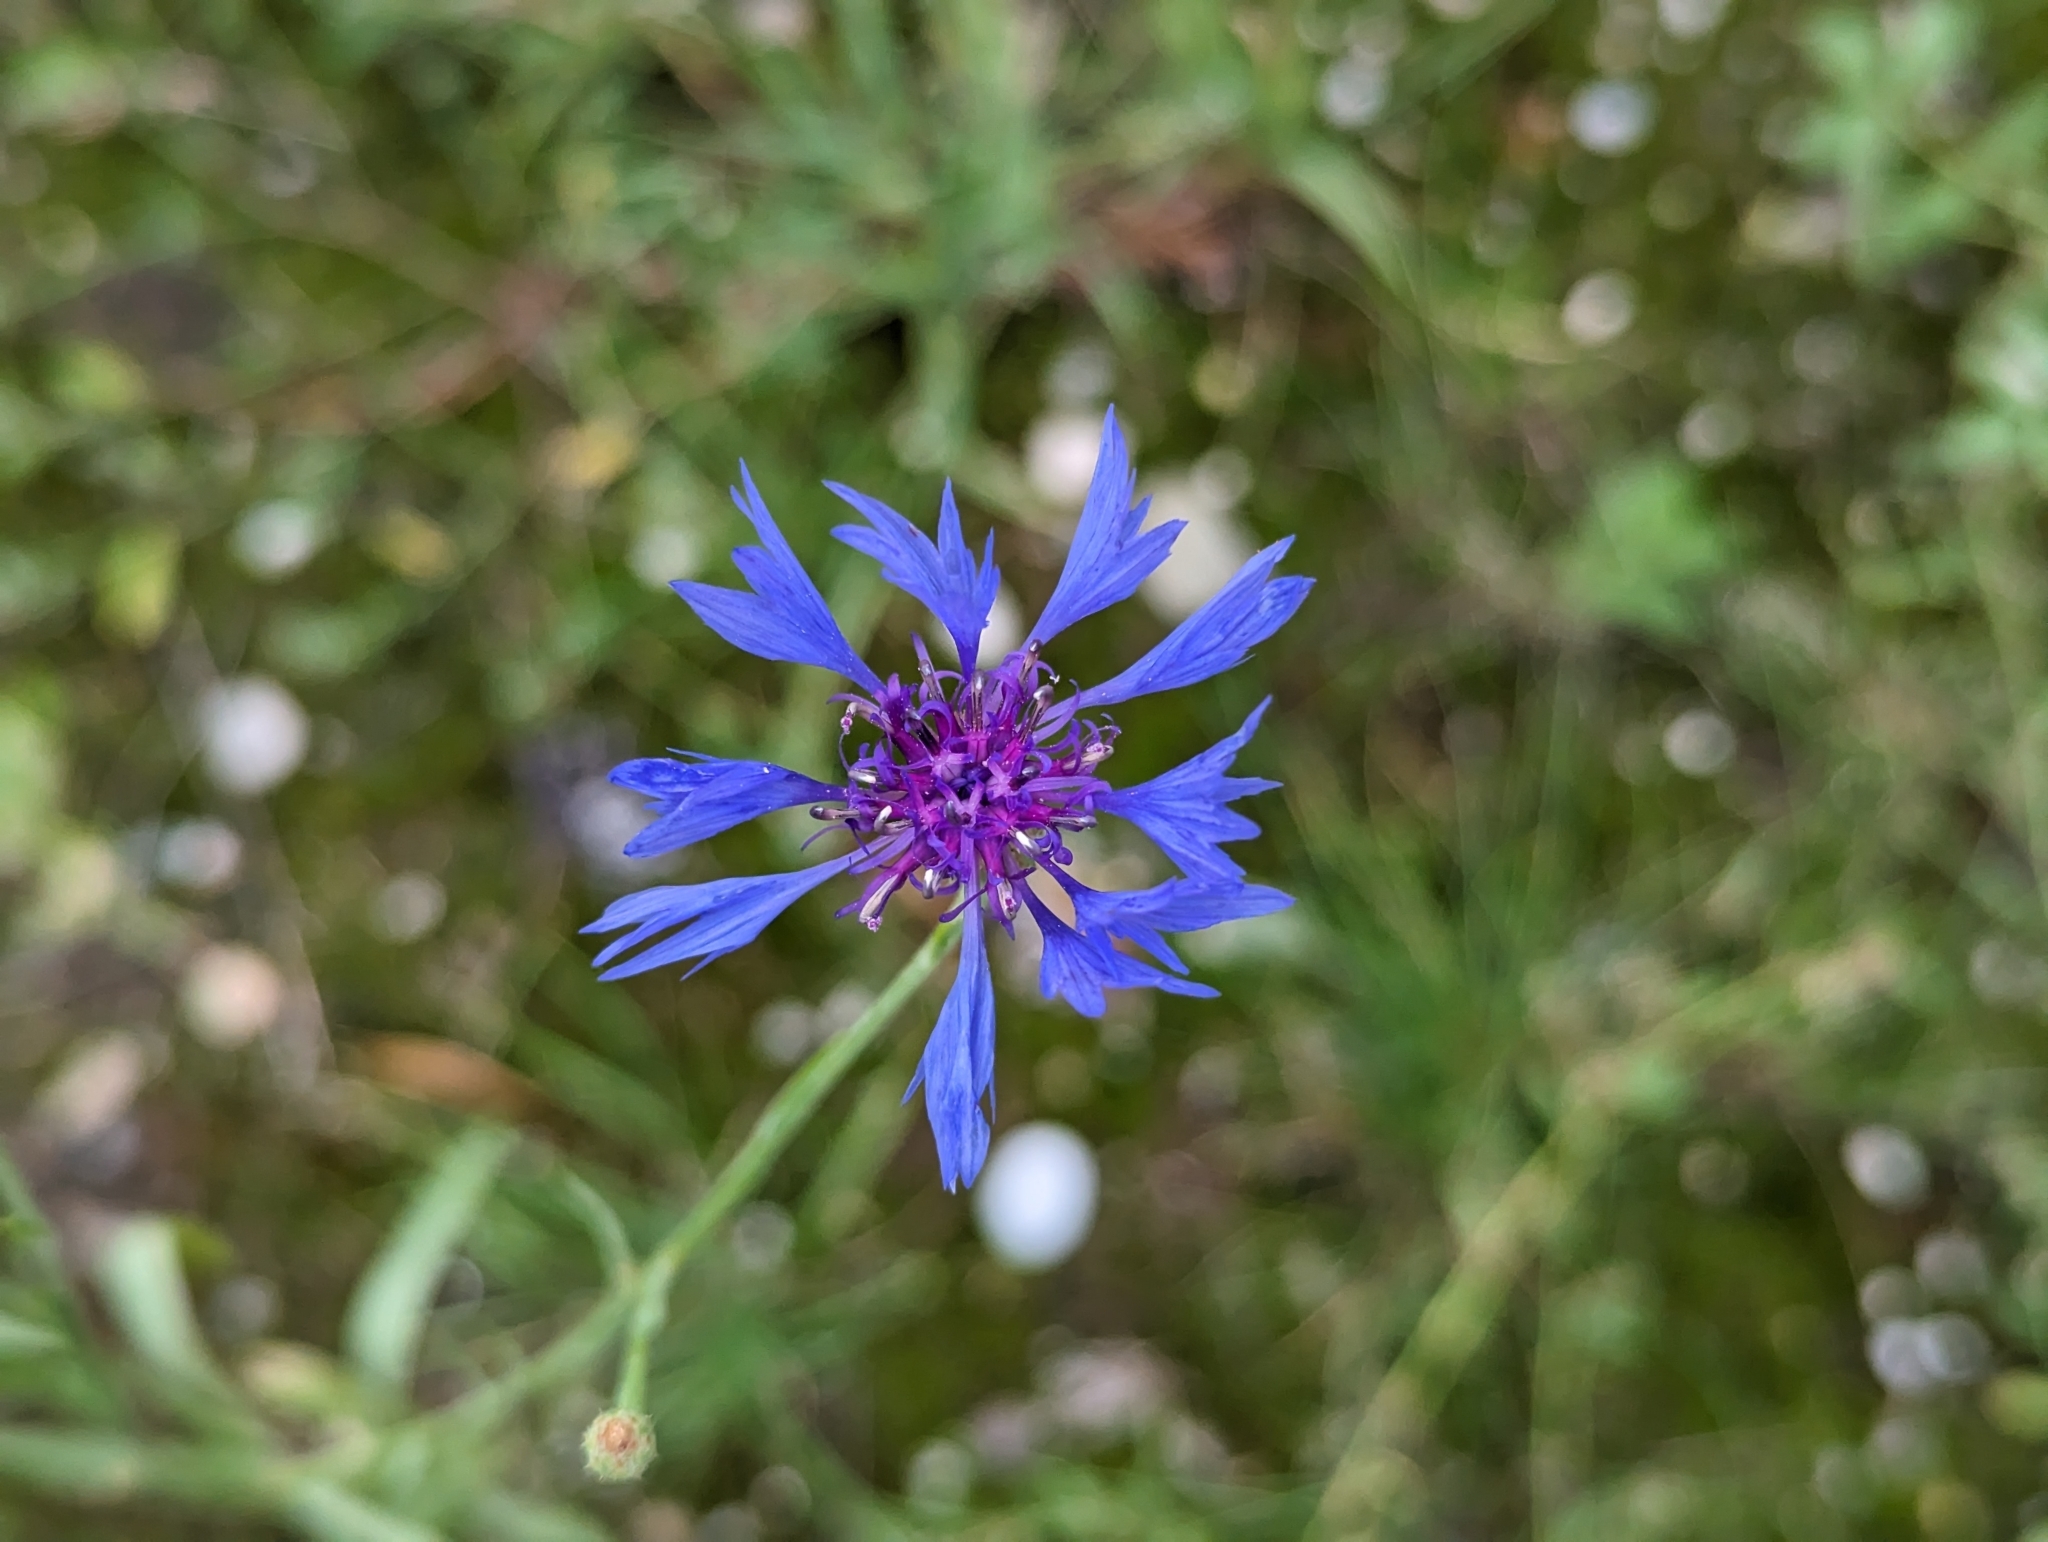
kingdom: Plantae
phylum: Tracheophyta
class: Magnoliopsida
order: Asterales
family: Asteraceae
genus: Centaurea
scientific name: Centaurea cyanus
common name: Cornflower
